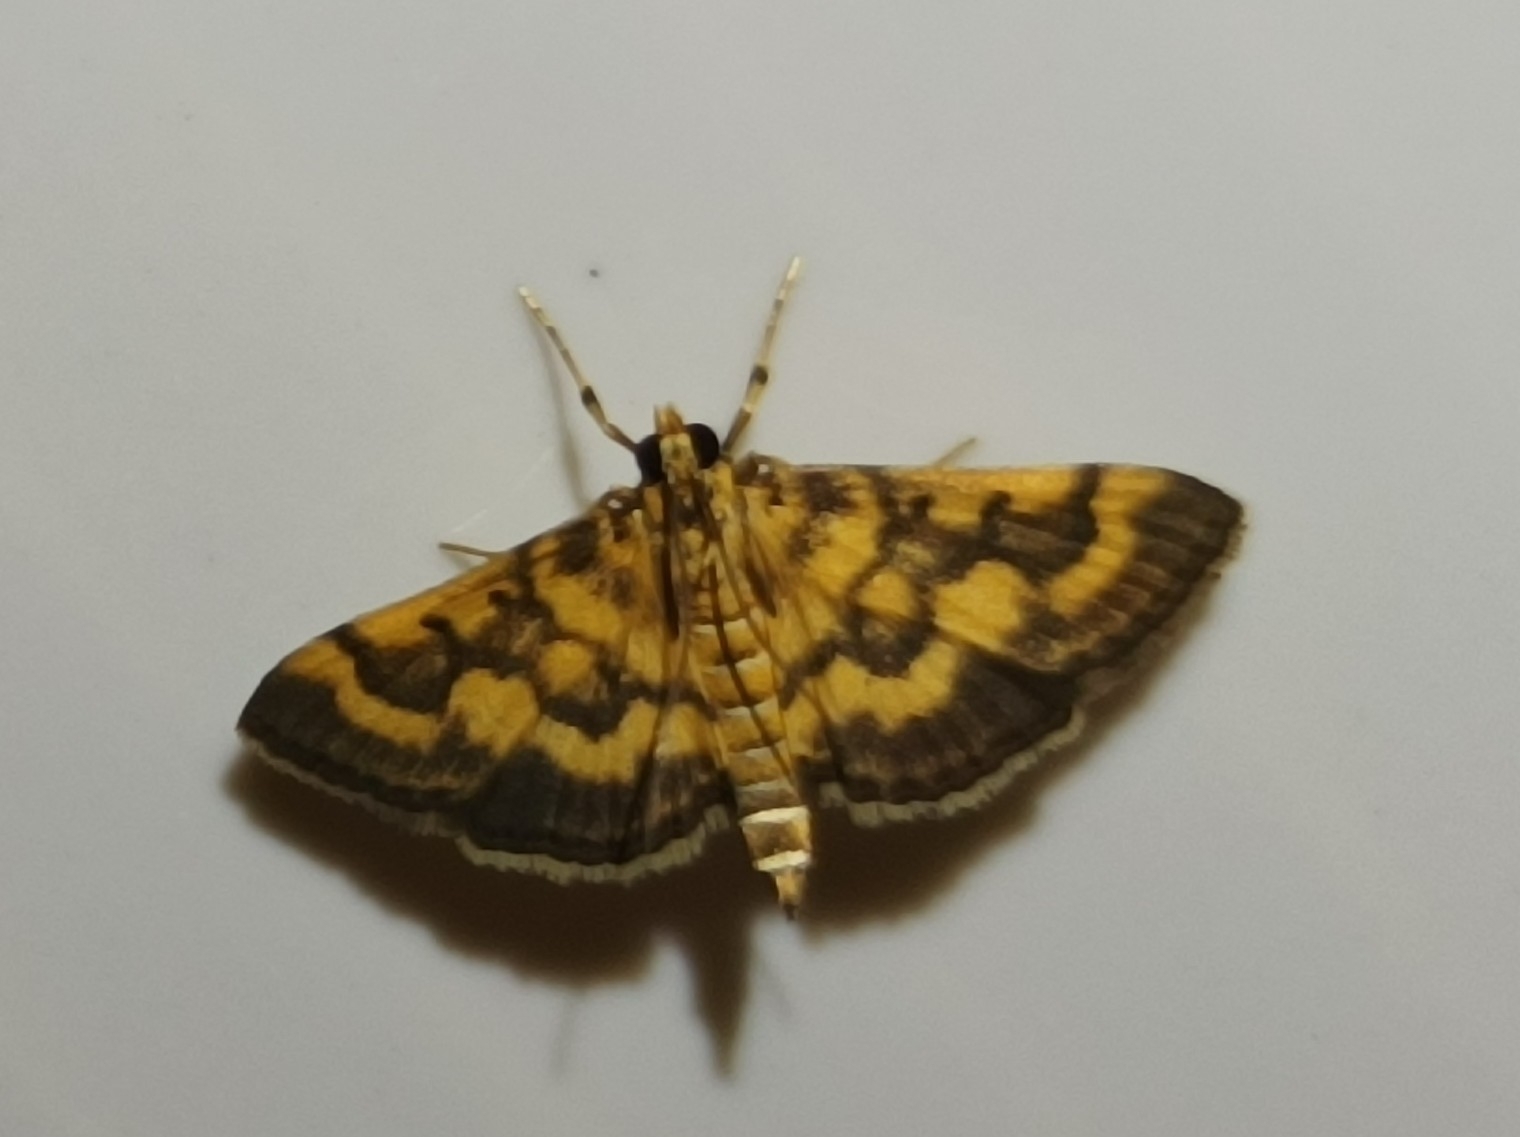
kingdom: Animalia
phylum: Arthropoda
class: Insecta
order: Lepidoptera
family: Crambidae
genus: Omiodes
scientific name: Omiodes diemenalis
